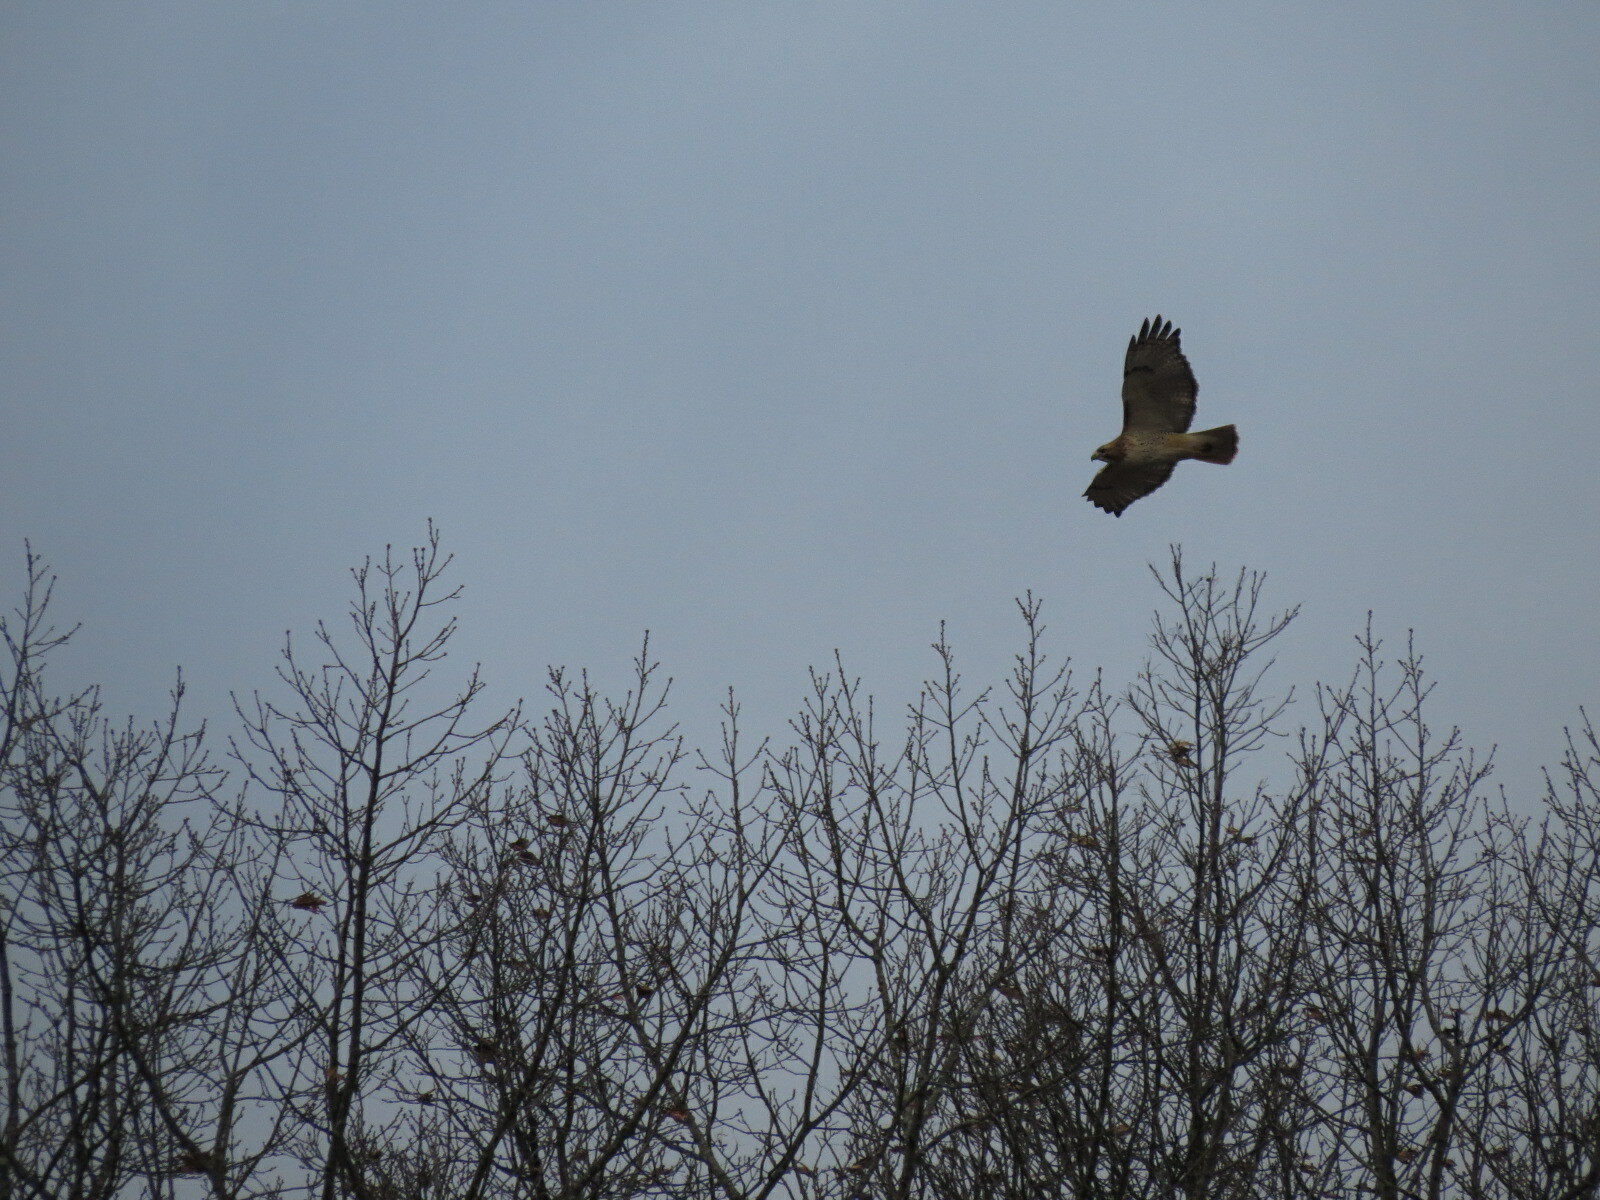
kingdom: Animalia
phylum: Chordata
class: Aves
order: Accipitriformes
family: Accipitridae
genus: Buteo
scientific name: Buteo jamaicensis
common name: Red-tailed hawk
